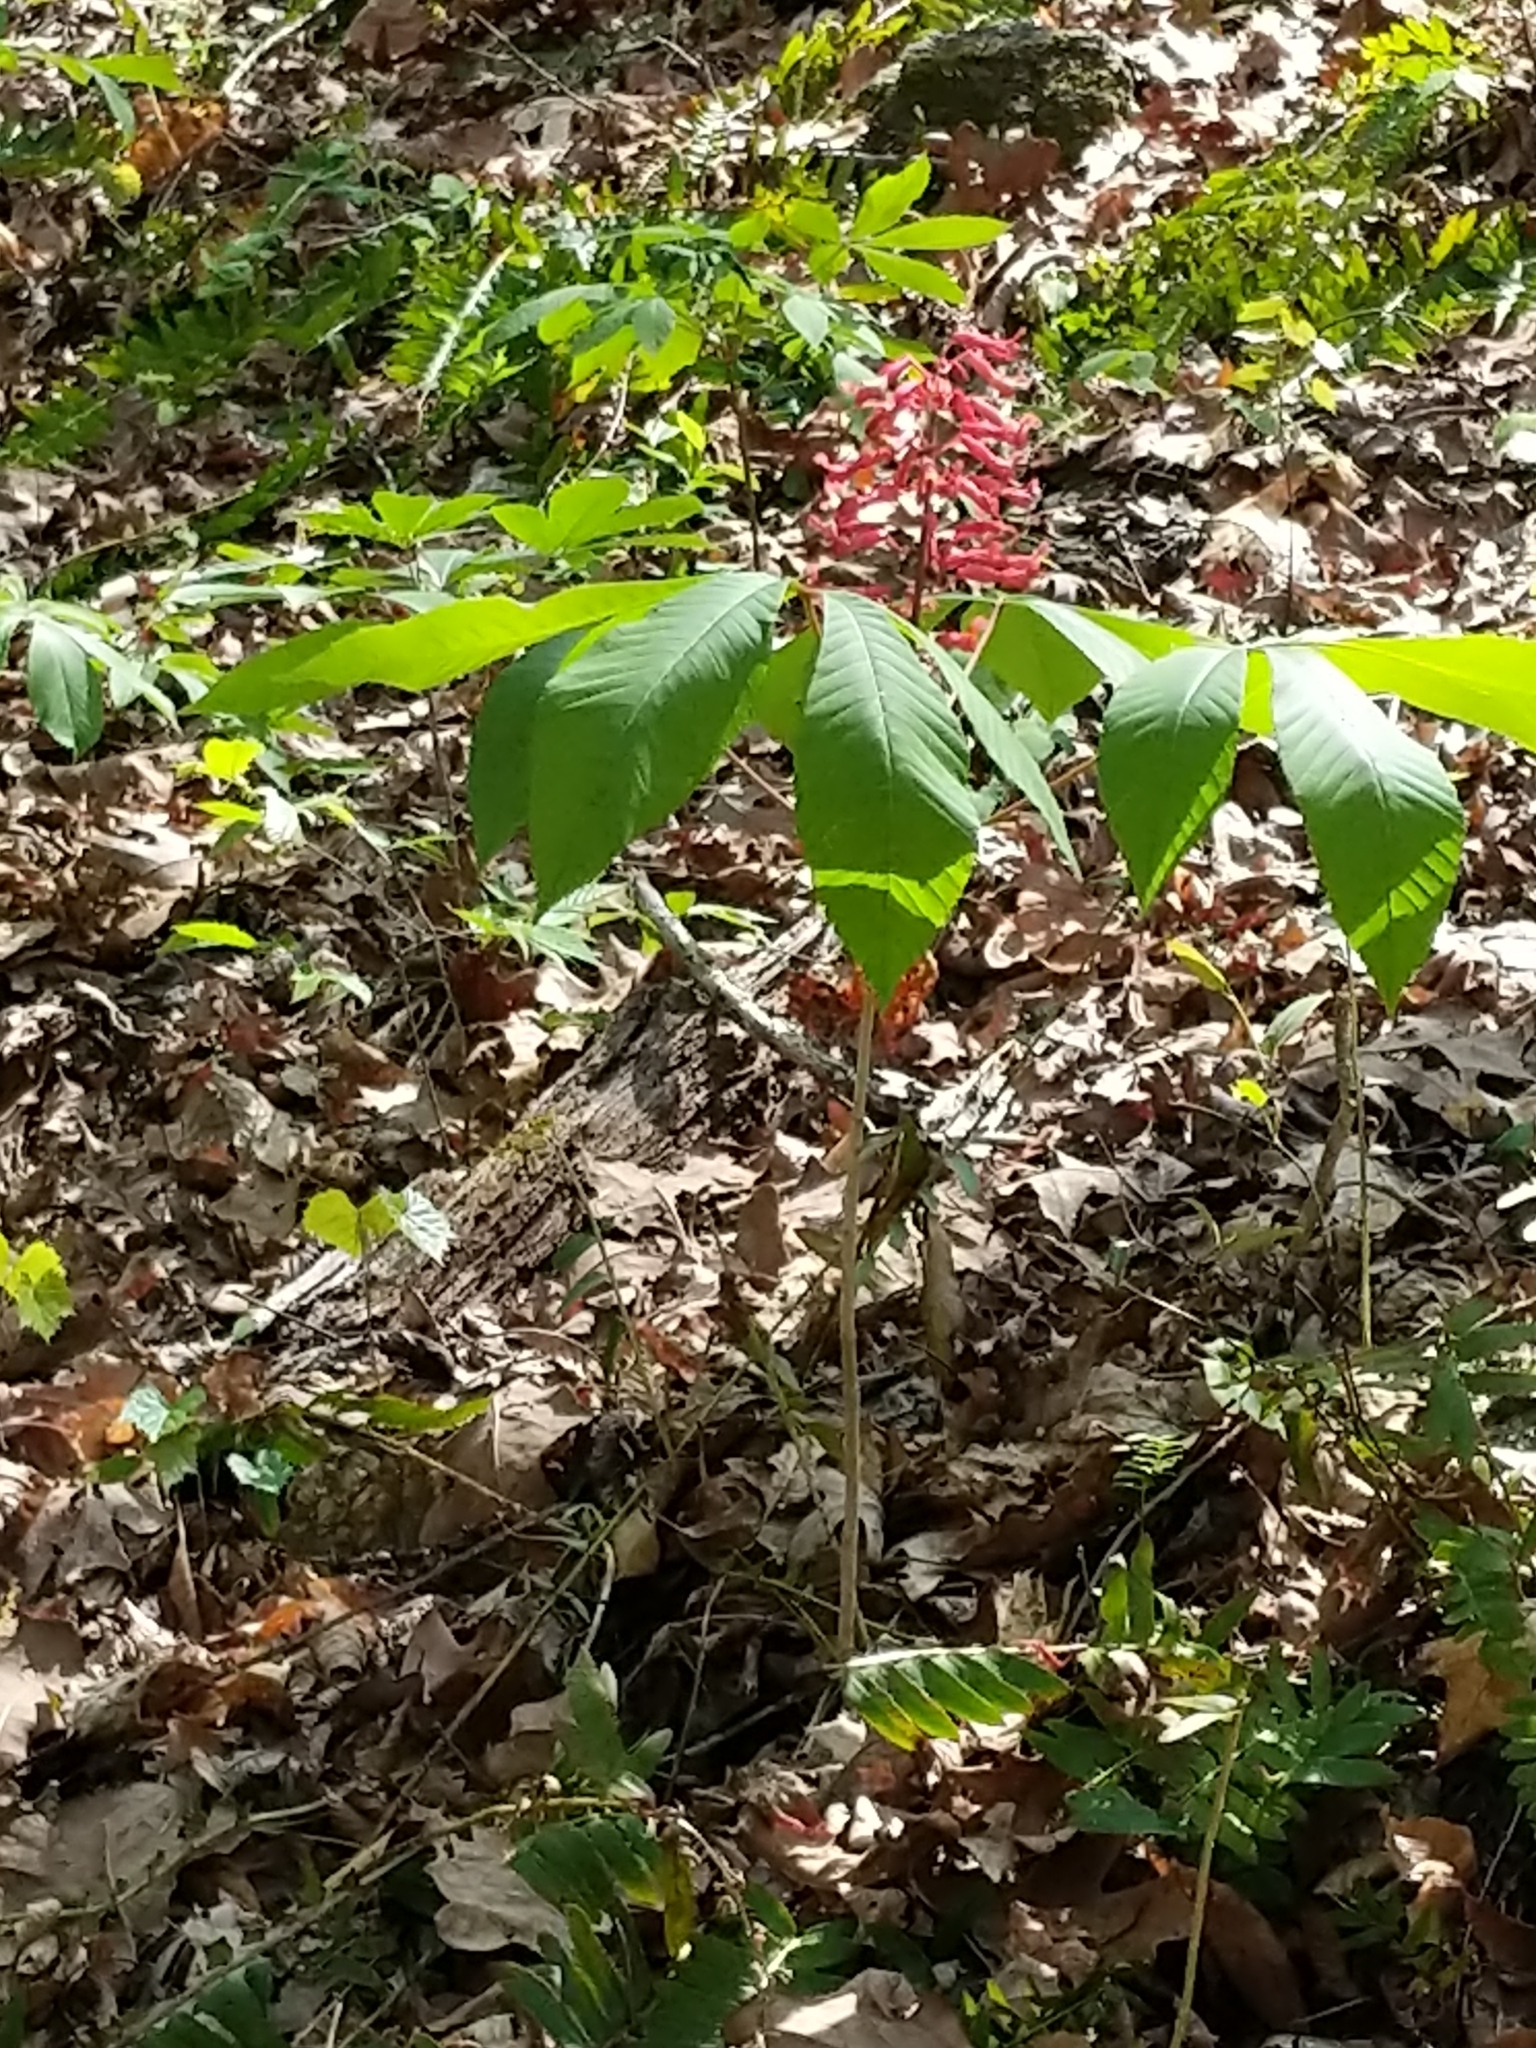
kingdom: Plantae
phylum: Tracheophyta
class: Magnoliopsida
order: Sapindales
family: Sapindaceae
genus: Aesculus
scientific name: Aesculus pavia
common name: Red buckeye
